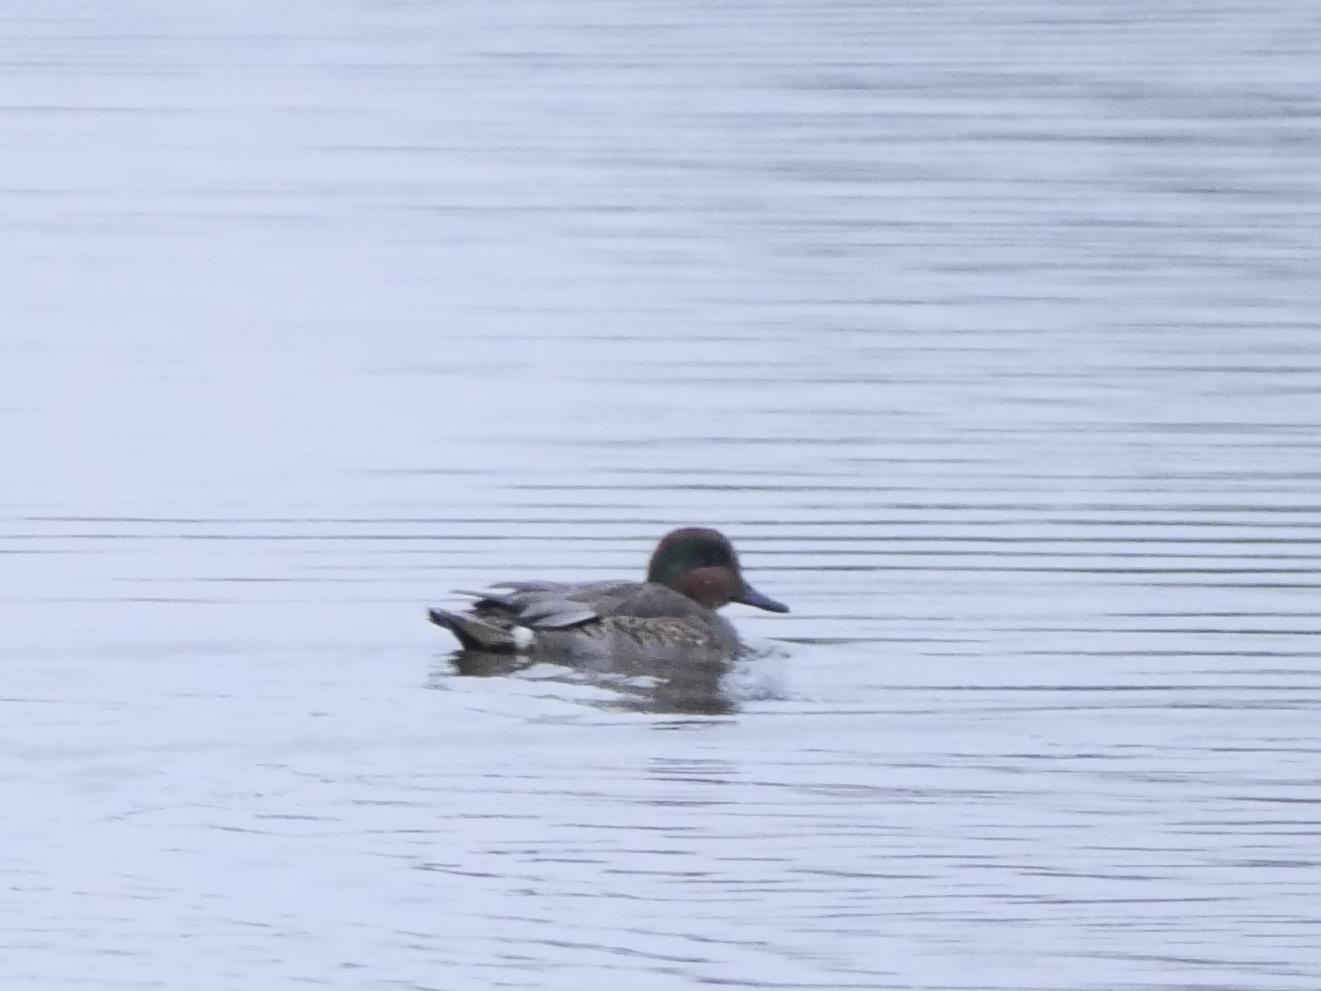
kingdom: Animalia
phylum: Chordata
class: Aves
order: Anseriformes
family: Anatidae
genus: Anas
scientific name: Anas crecca
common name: Eurasian teal
